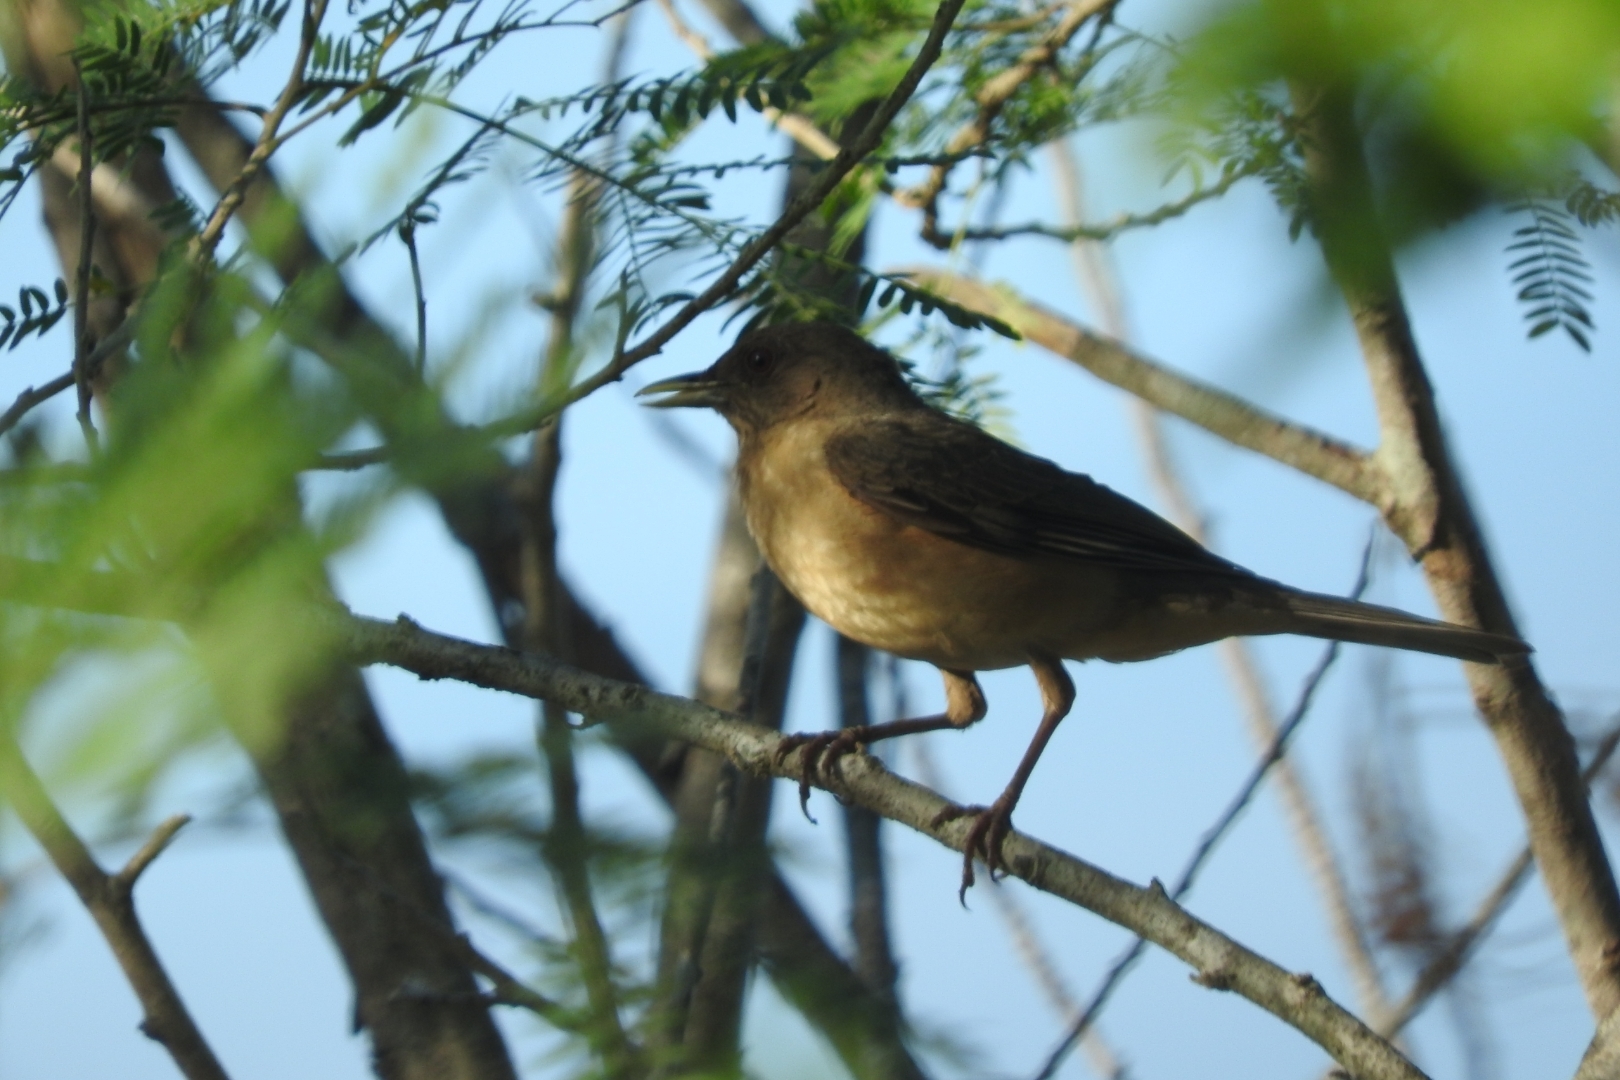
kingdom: Animalia
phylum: Chordata
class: Aves
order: Passeriformes
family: Turdidae
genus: Turdus
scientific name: Turdus grayi
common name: Clay-colored thrush
